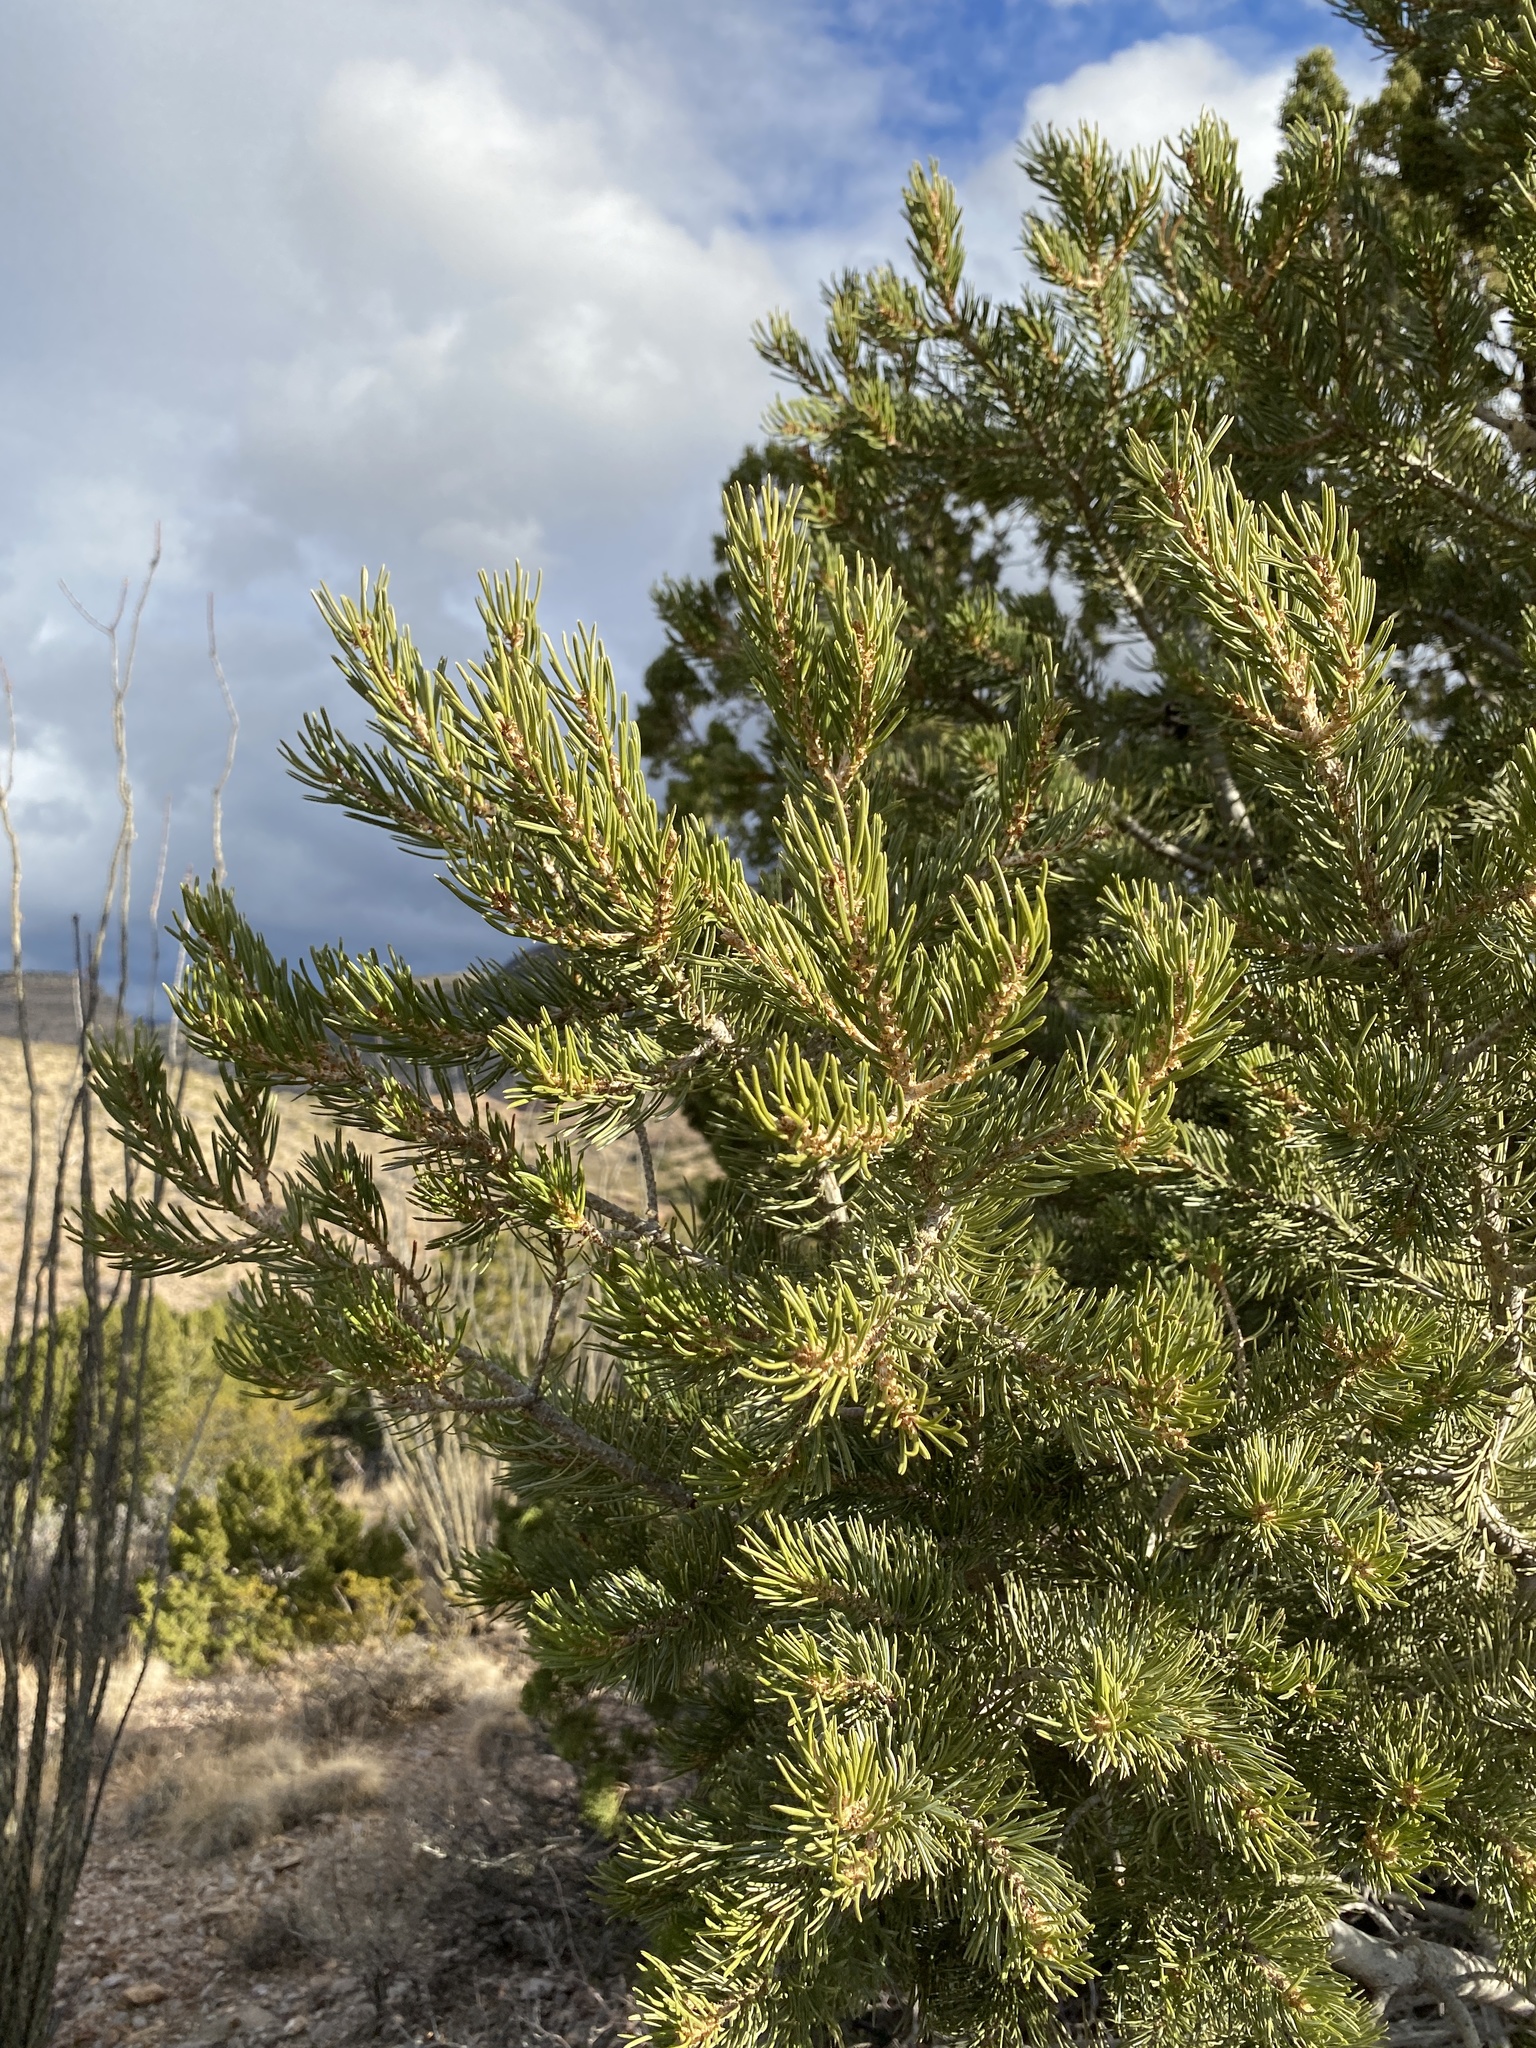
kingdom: Plantae
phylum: Tracheophyta
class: Pinopsida
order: Pinales
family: Pinaceae
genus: Pinus
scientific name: Pinus edulis
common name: Colorado pinyon
